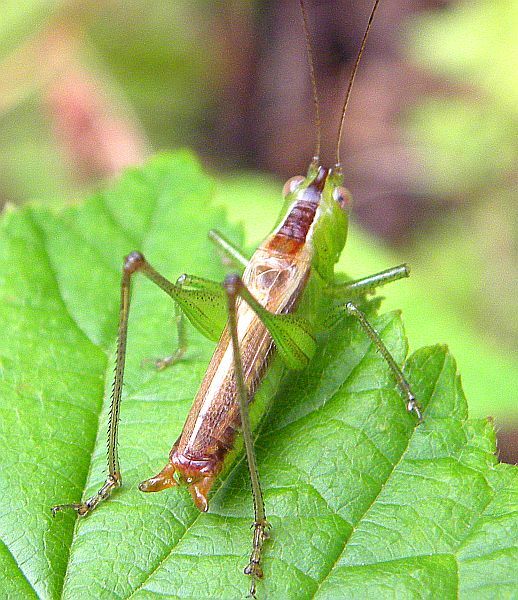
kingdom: Animalia
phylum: Arthropoda
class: Insecta
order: Orthoptera
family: Tettigoniidae
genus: Conocephalus
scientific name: Conocephalus brevipennis
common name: Short-winged meadow katydid
